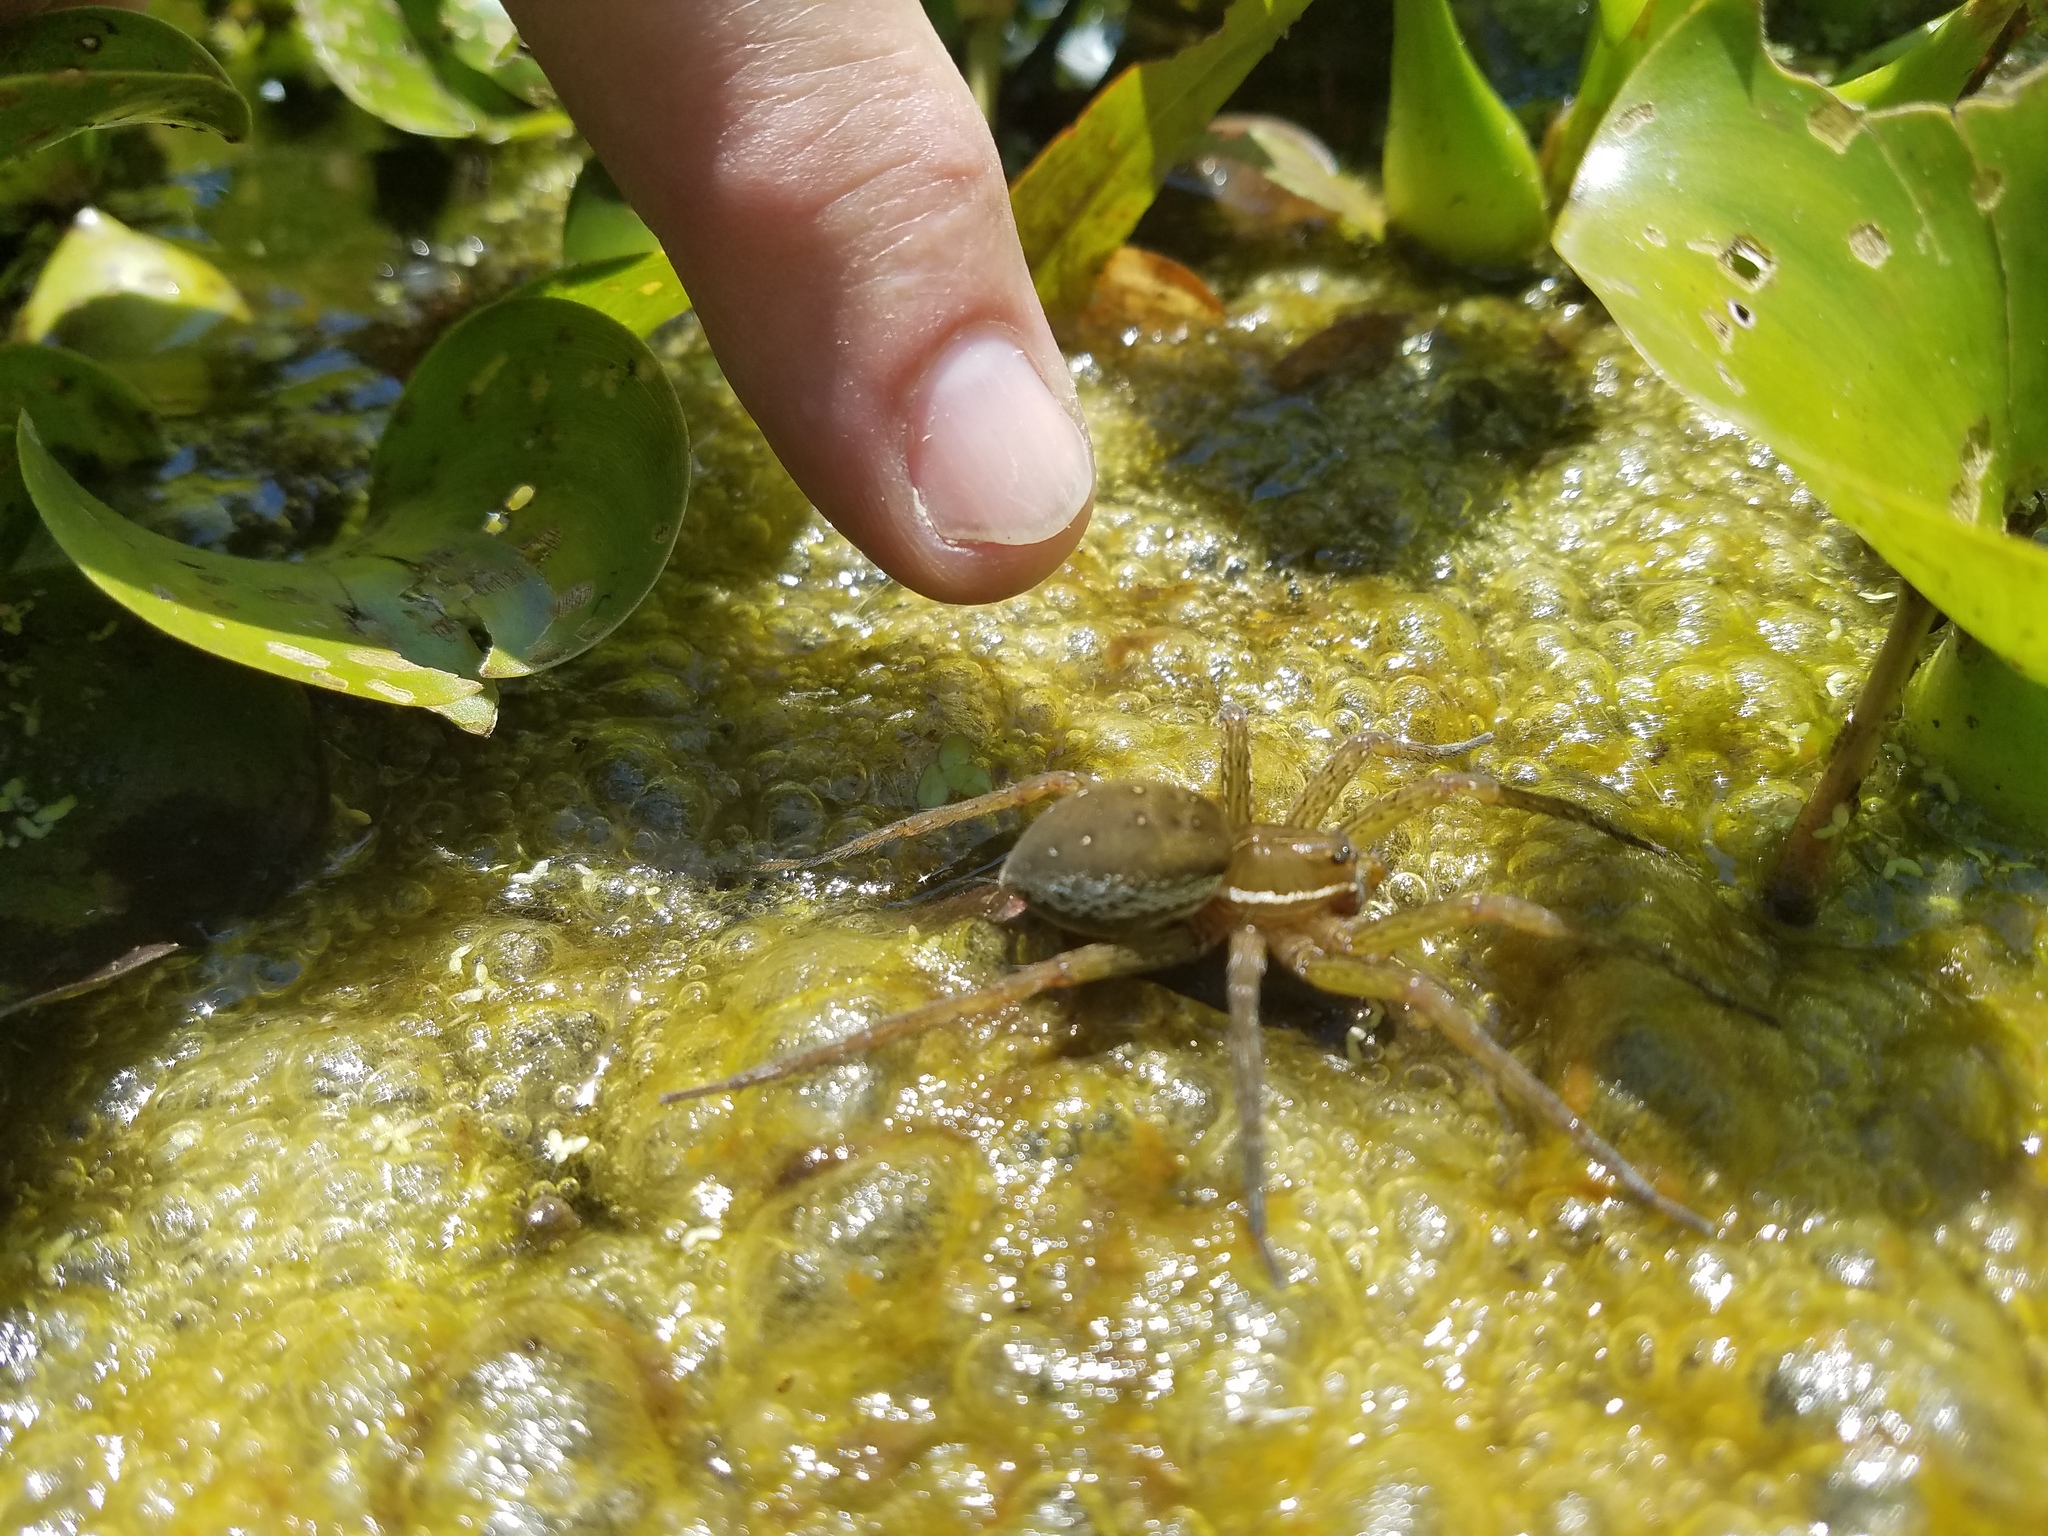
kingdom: Animalia
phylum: Arthropoda
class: Arachnida
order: Araneae
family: Pisauridae
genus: Dolomedes
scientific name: Dolomedes triton
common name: Six-spotted fishing spider
